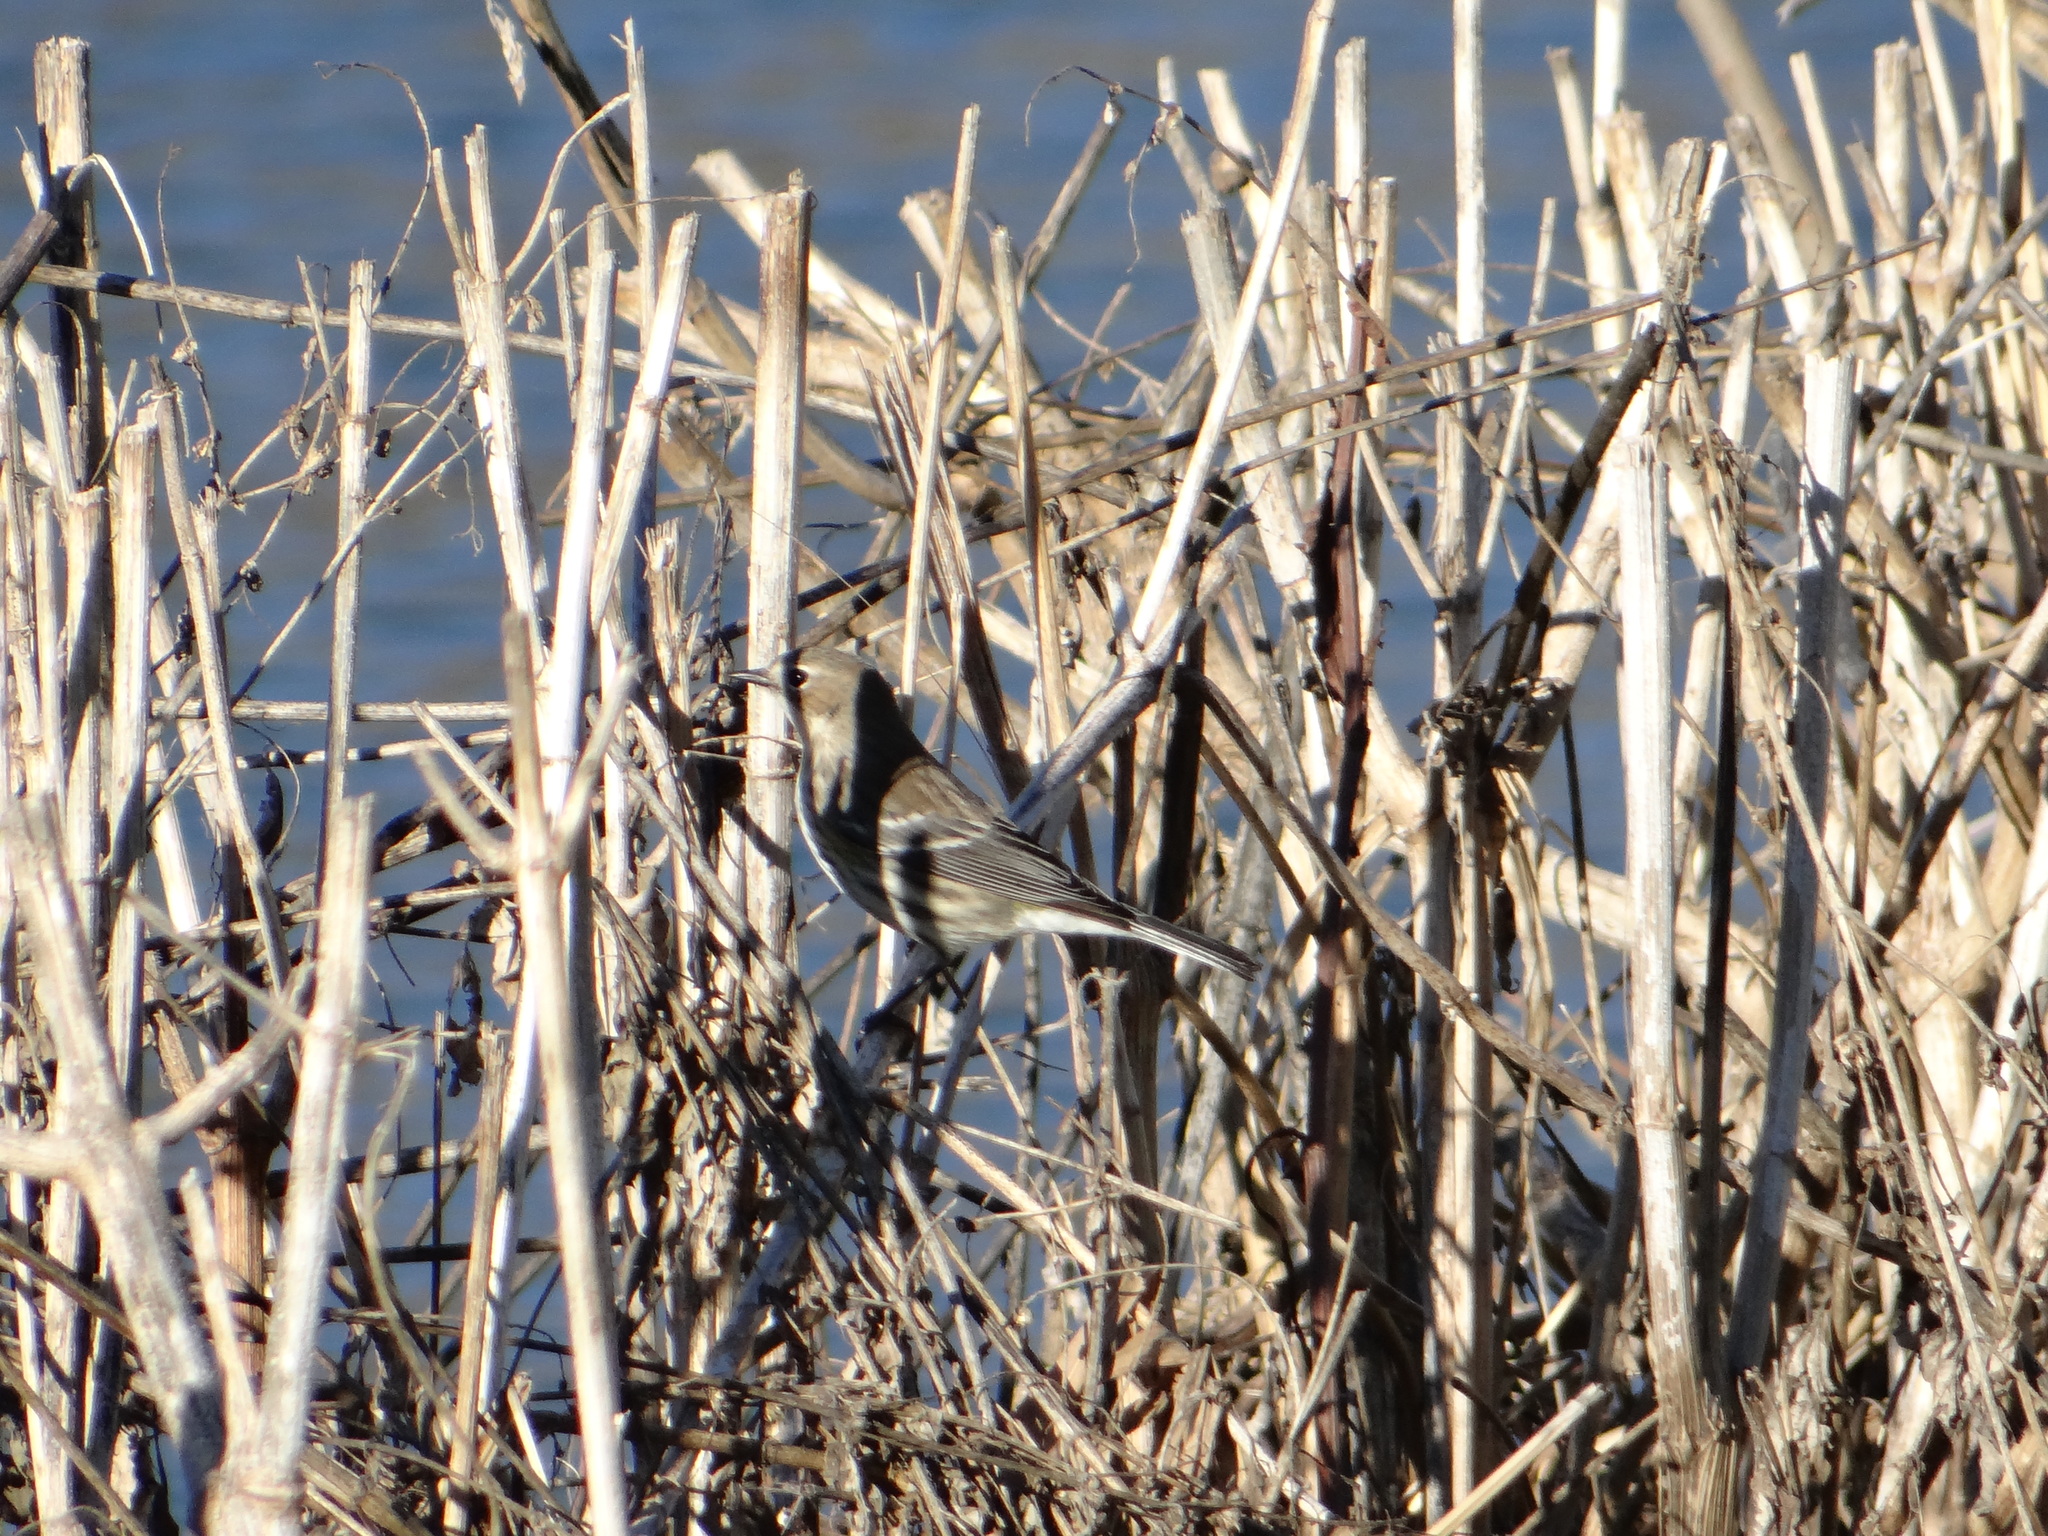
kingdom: Animalia
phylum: Chordata
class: Aves
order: Passeriformes
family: Parulidae
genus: Setophaga
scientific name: Setophaga coronata
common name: Myrtle warbler
